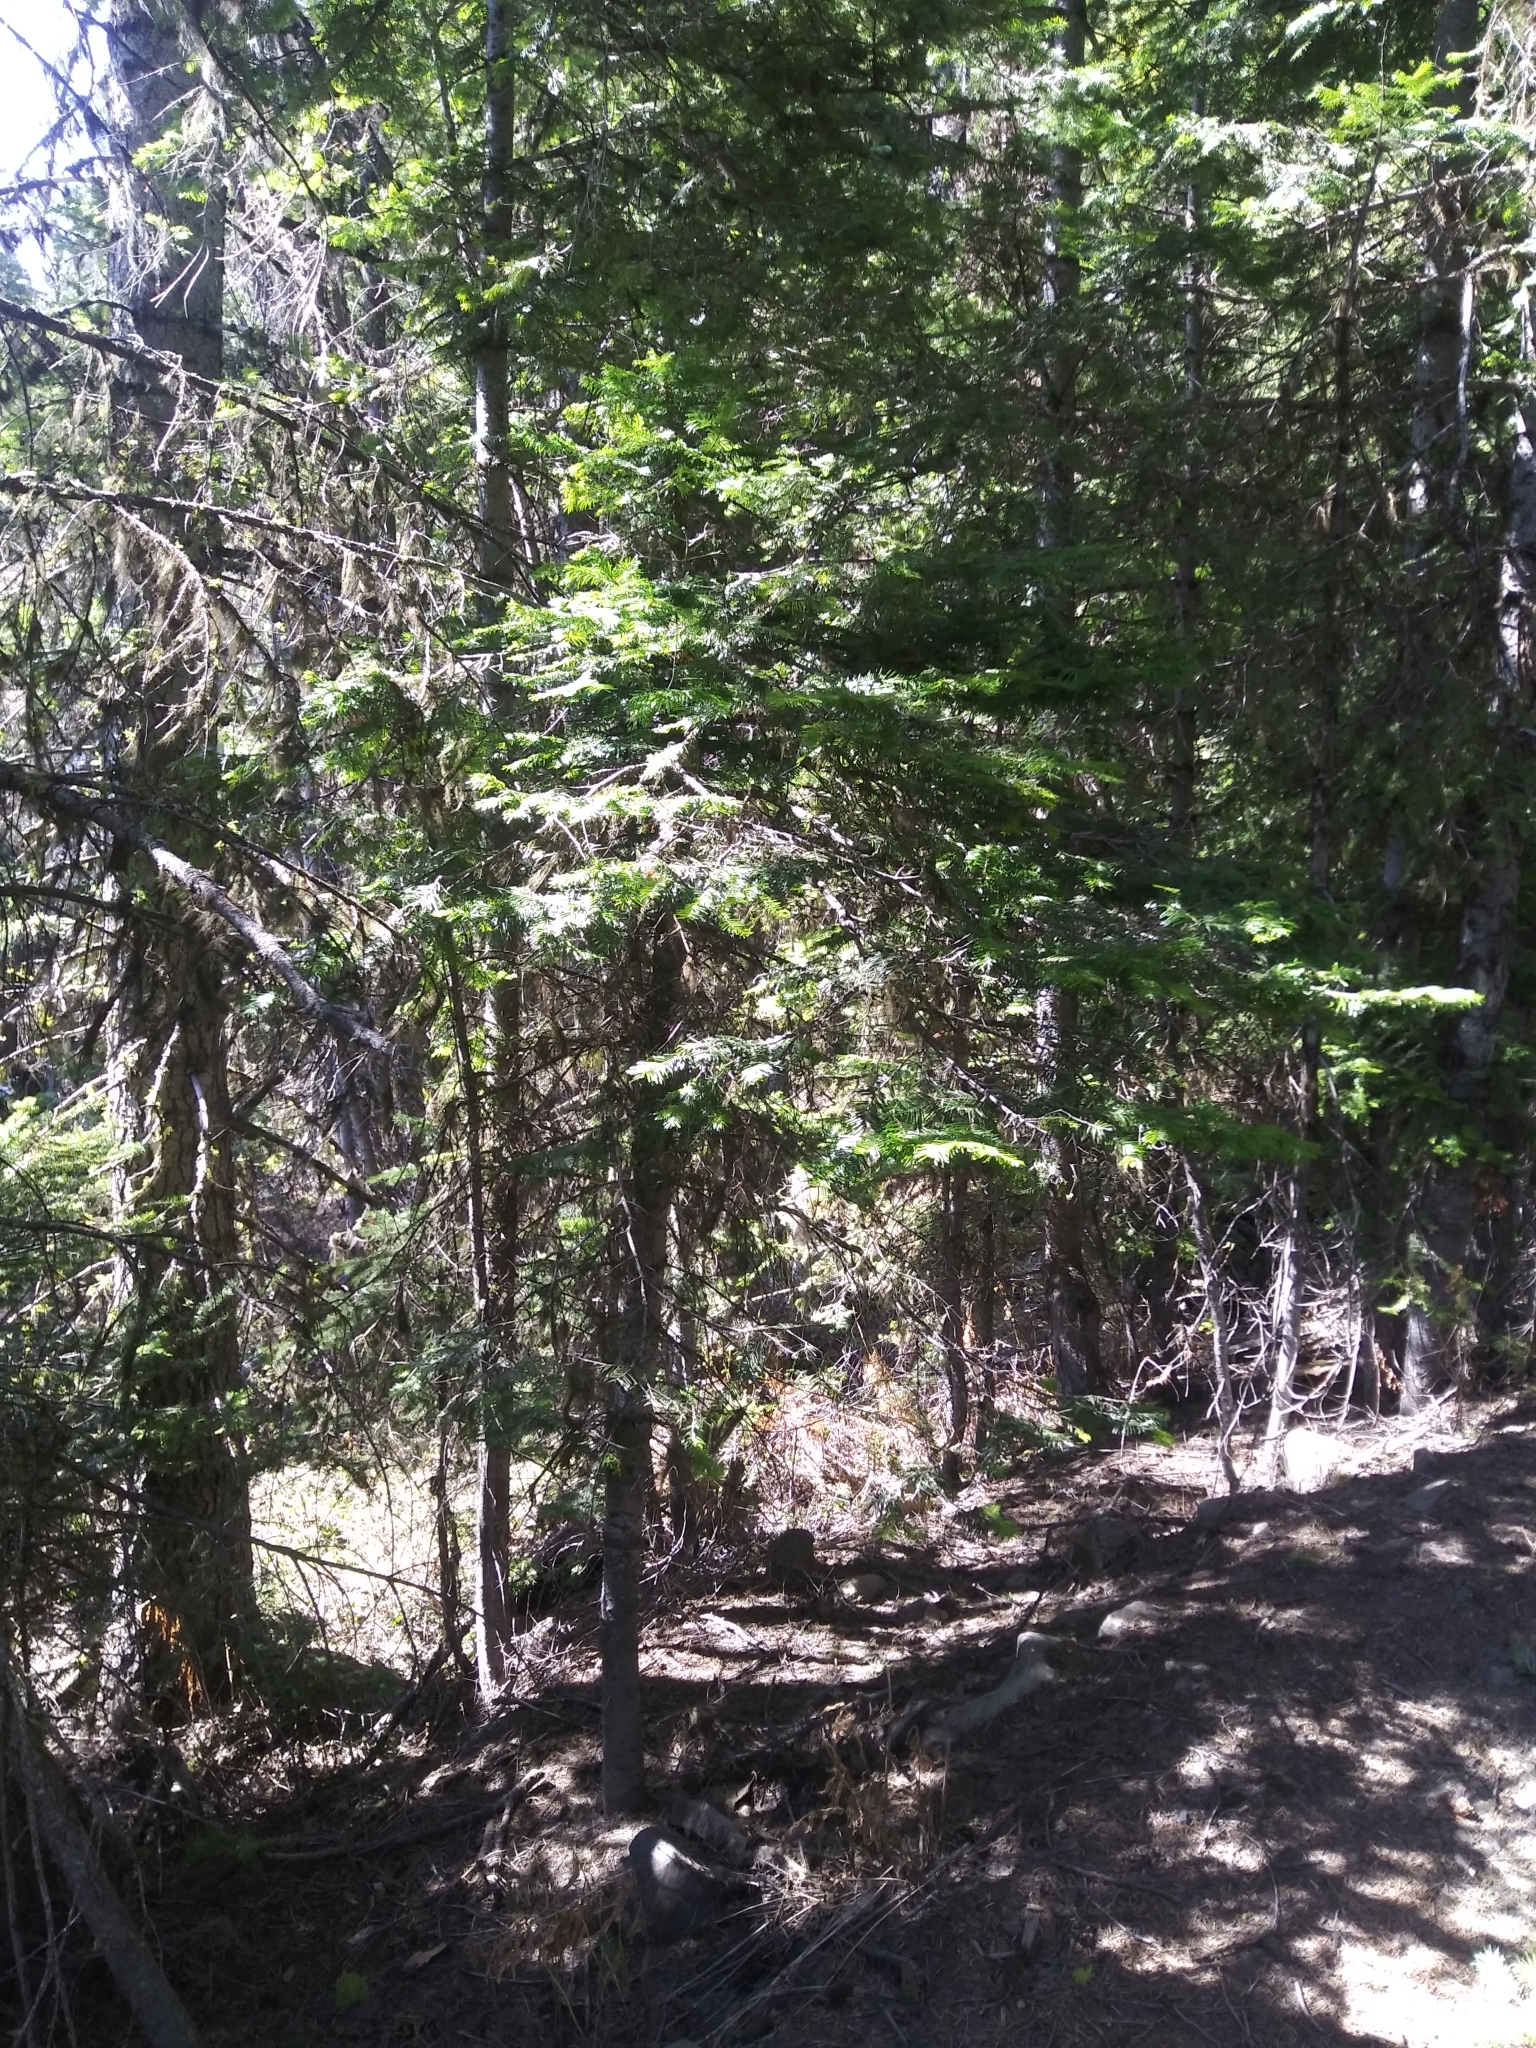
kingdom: Plantae
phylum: Tracheophyta
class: Pinopsida
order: Pinales
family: Pinaceae
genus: Abies
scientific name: Abies grandis
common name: Giant fir
